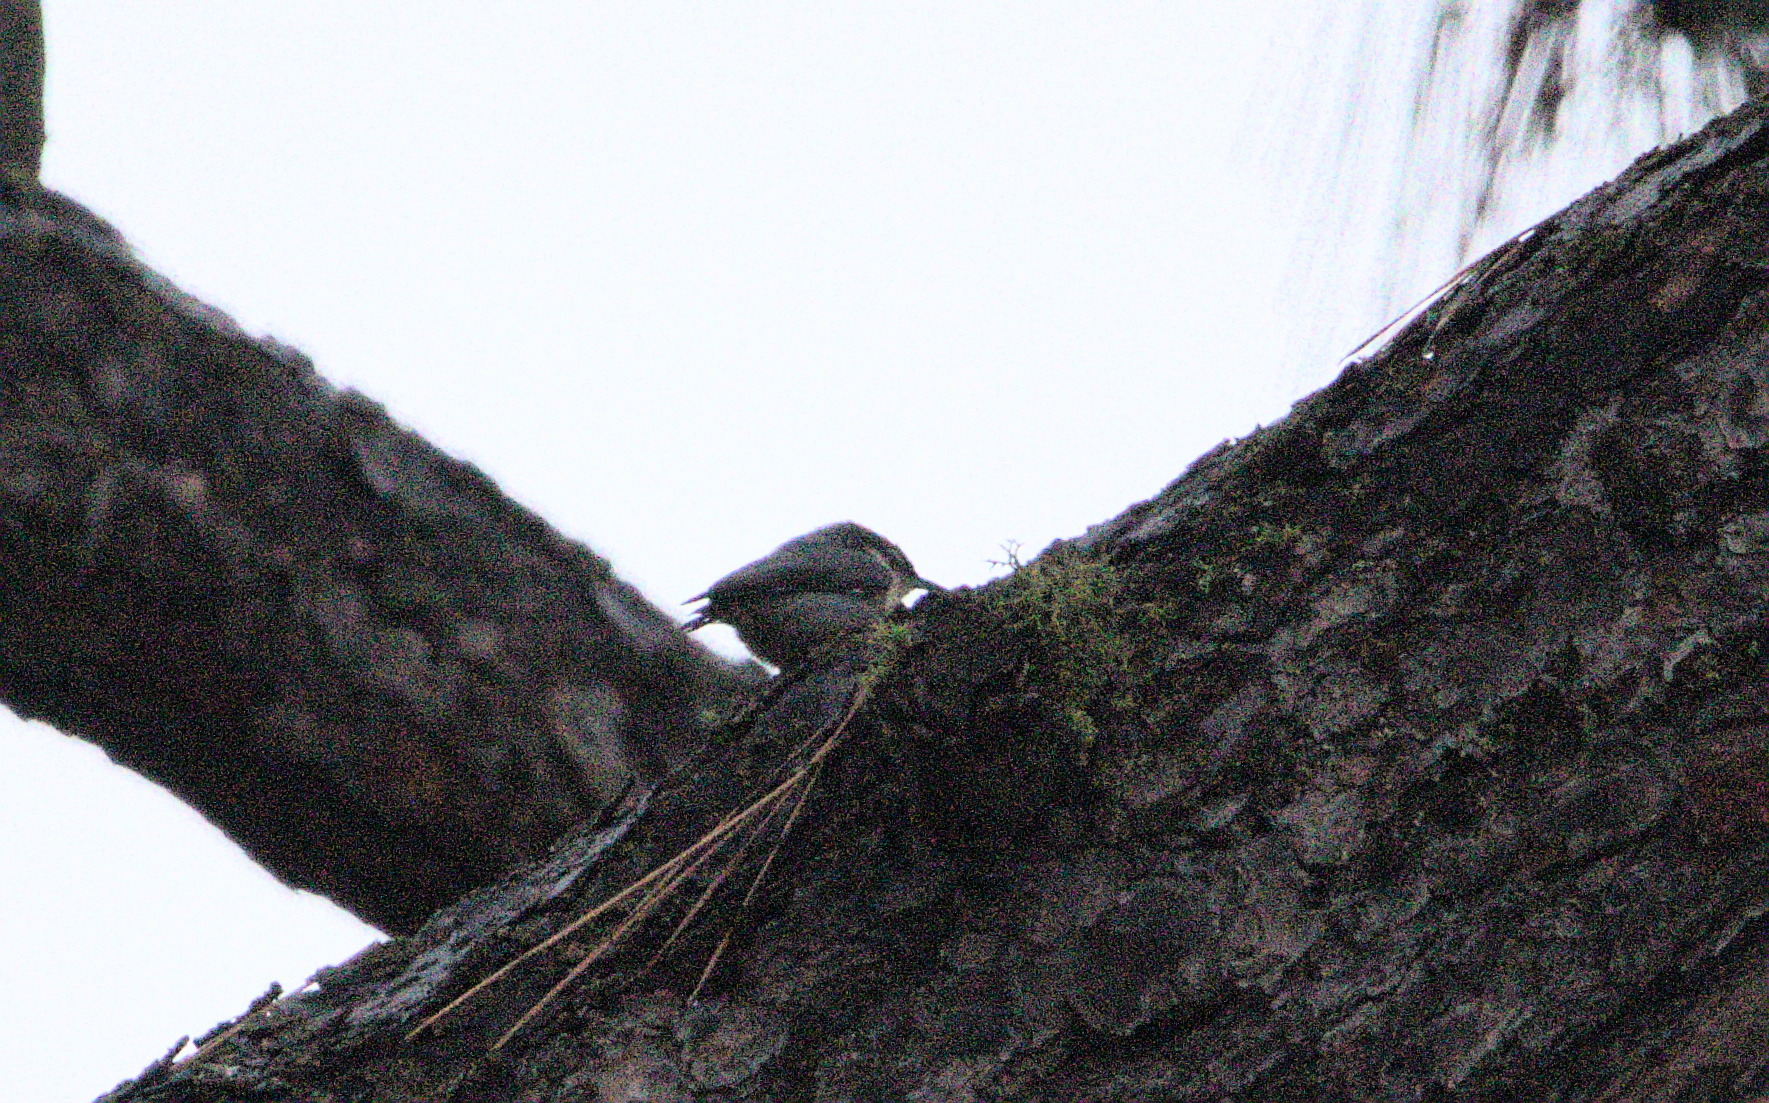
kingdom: Animalia
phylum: Chordata
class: Aves
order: Passeriformes
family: Sittidae
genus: Sitta
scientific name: Sitta pygmaea
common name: Pygmy nuthatch
